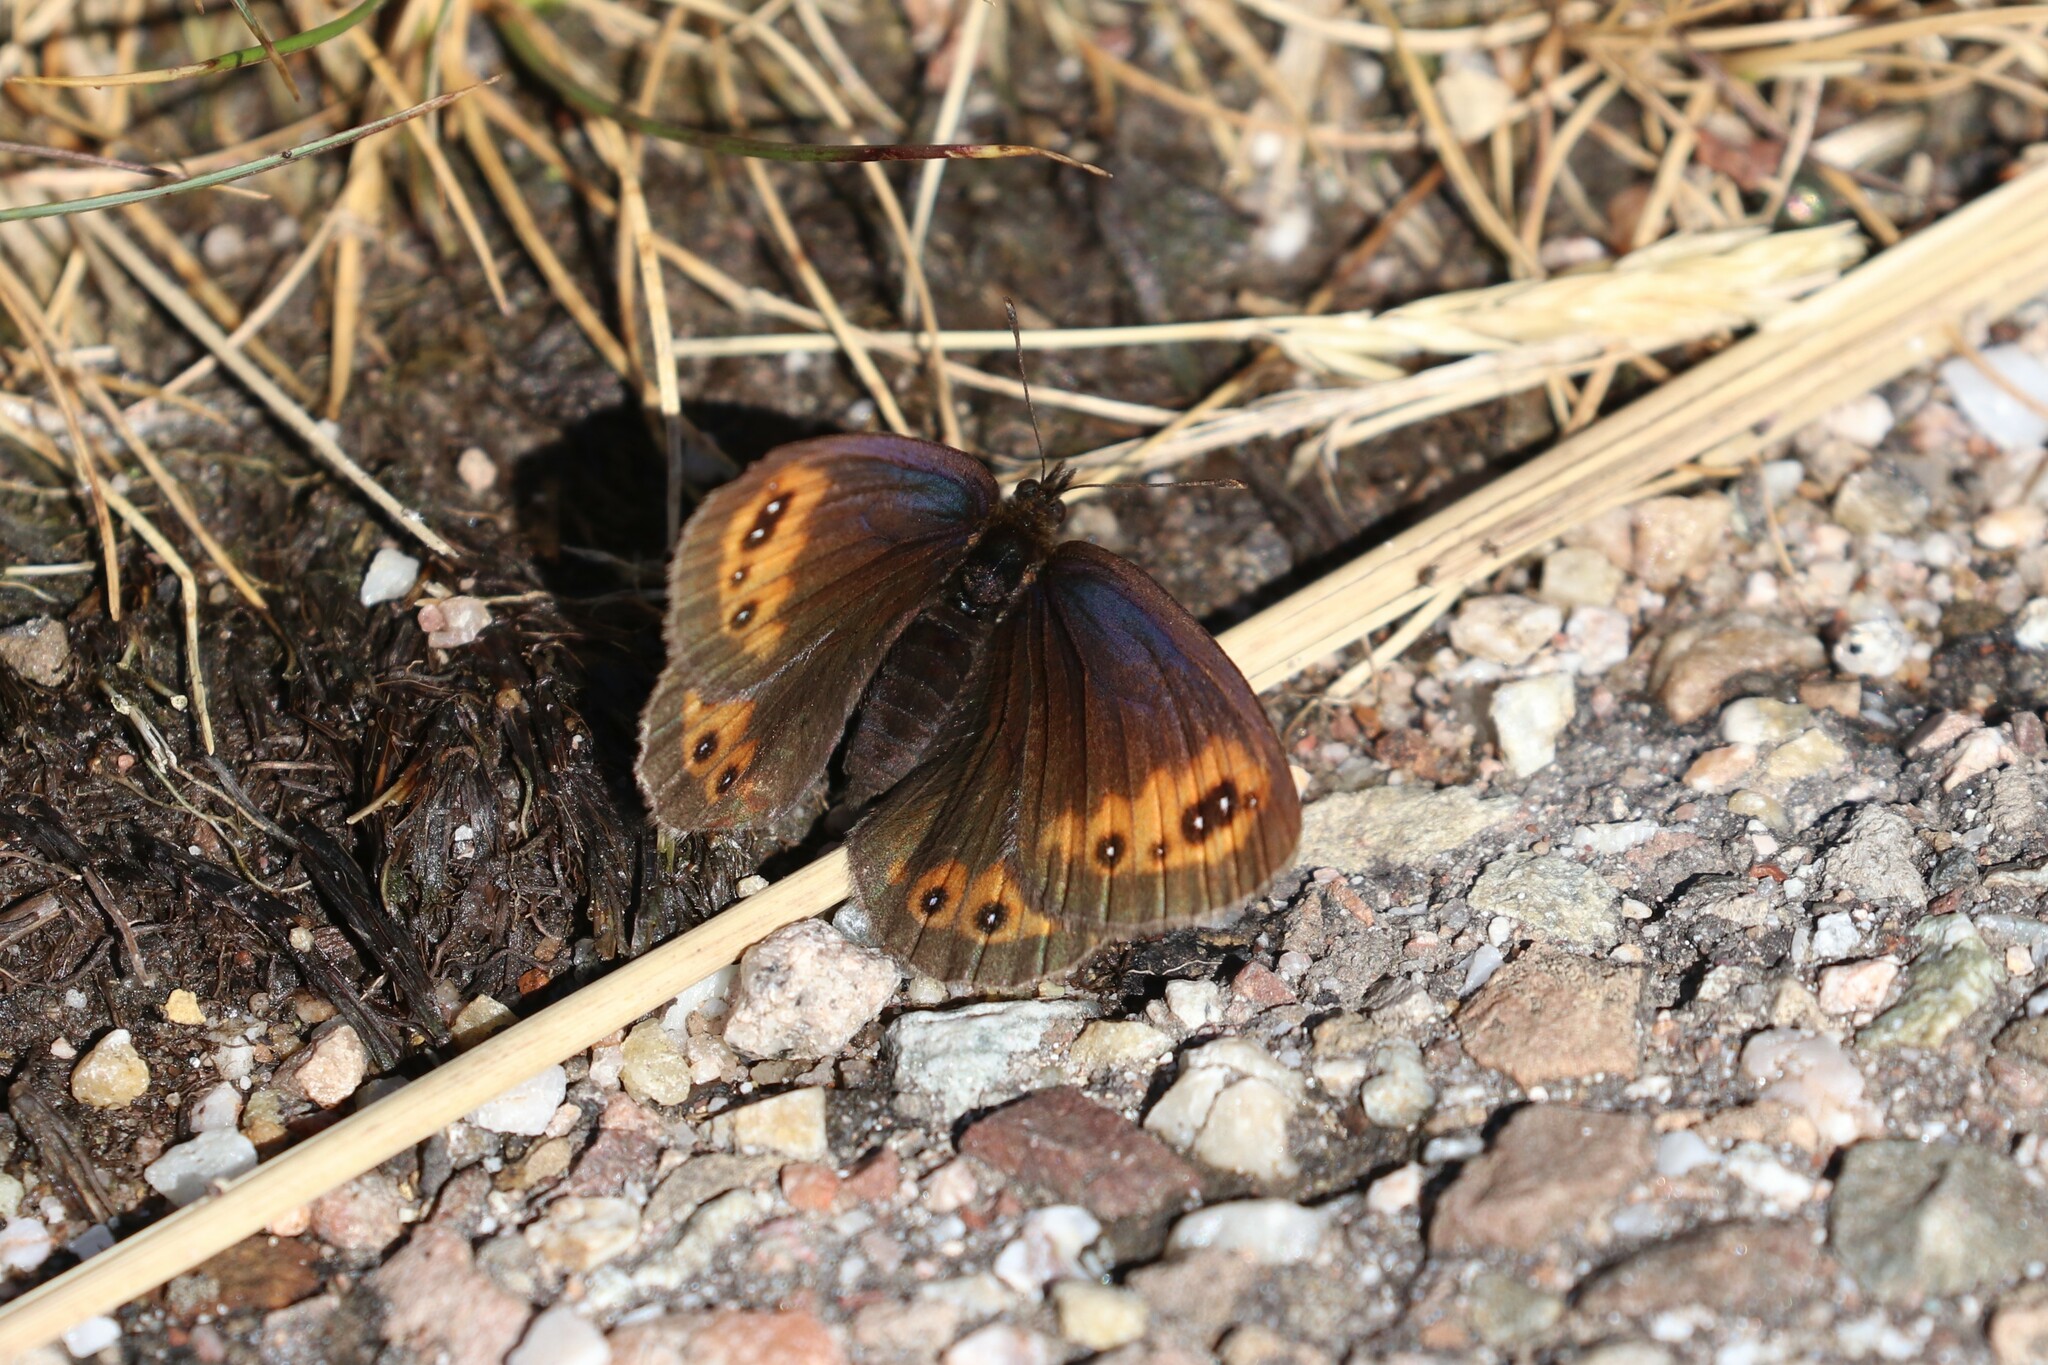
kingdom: Animalia
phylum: Arthropoda
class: Insecta
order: Lepidoptera
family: Nymphalidae
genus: Erebia
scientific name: Erebia meolans
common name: Piedmont ringlet
